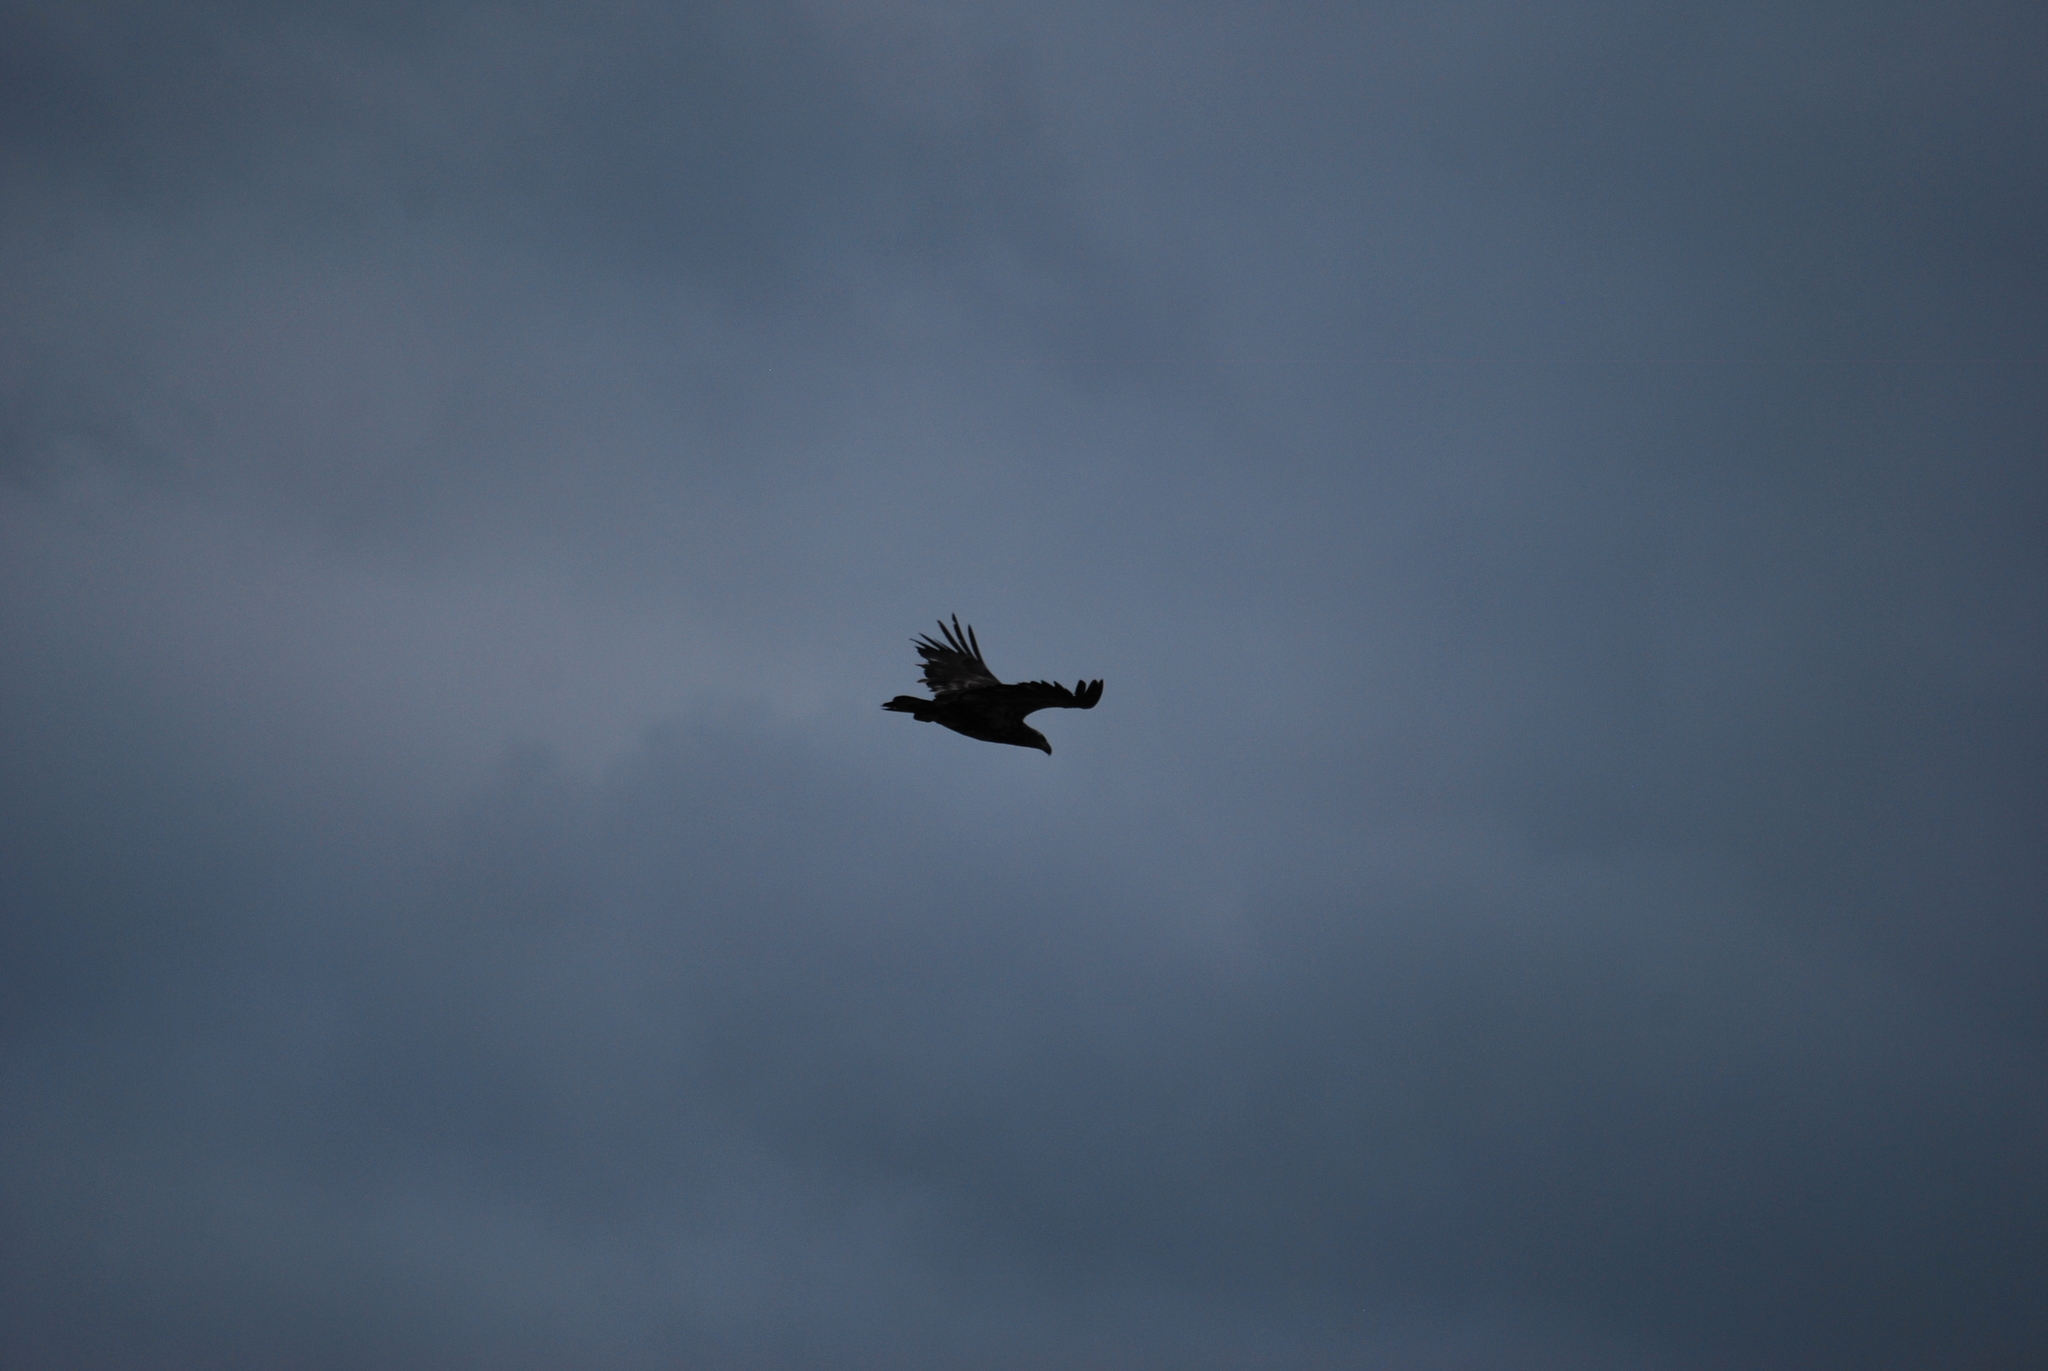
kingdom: Animalia
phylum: Chordata
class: Aves
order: Accipitriformes
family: Accipitridae
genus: Haliaeetus
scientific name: Haliaeetus leucocephalus
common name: Bald eagle
